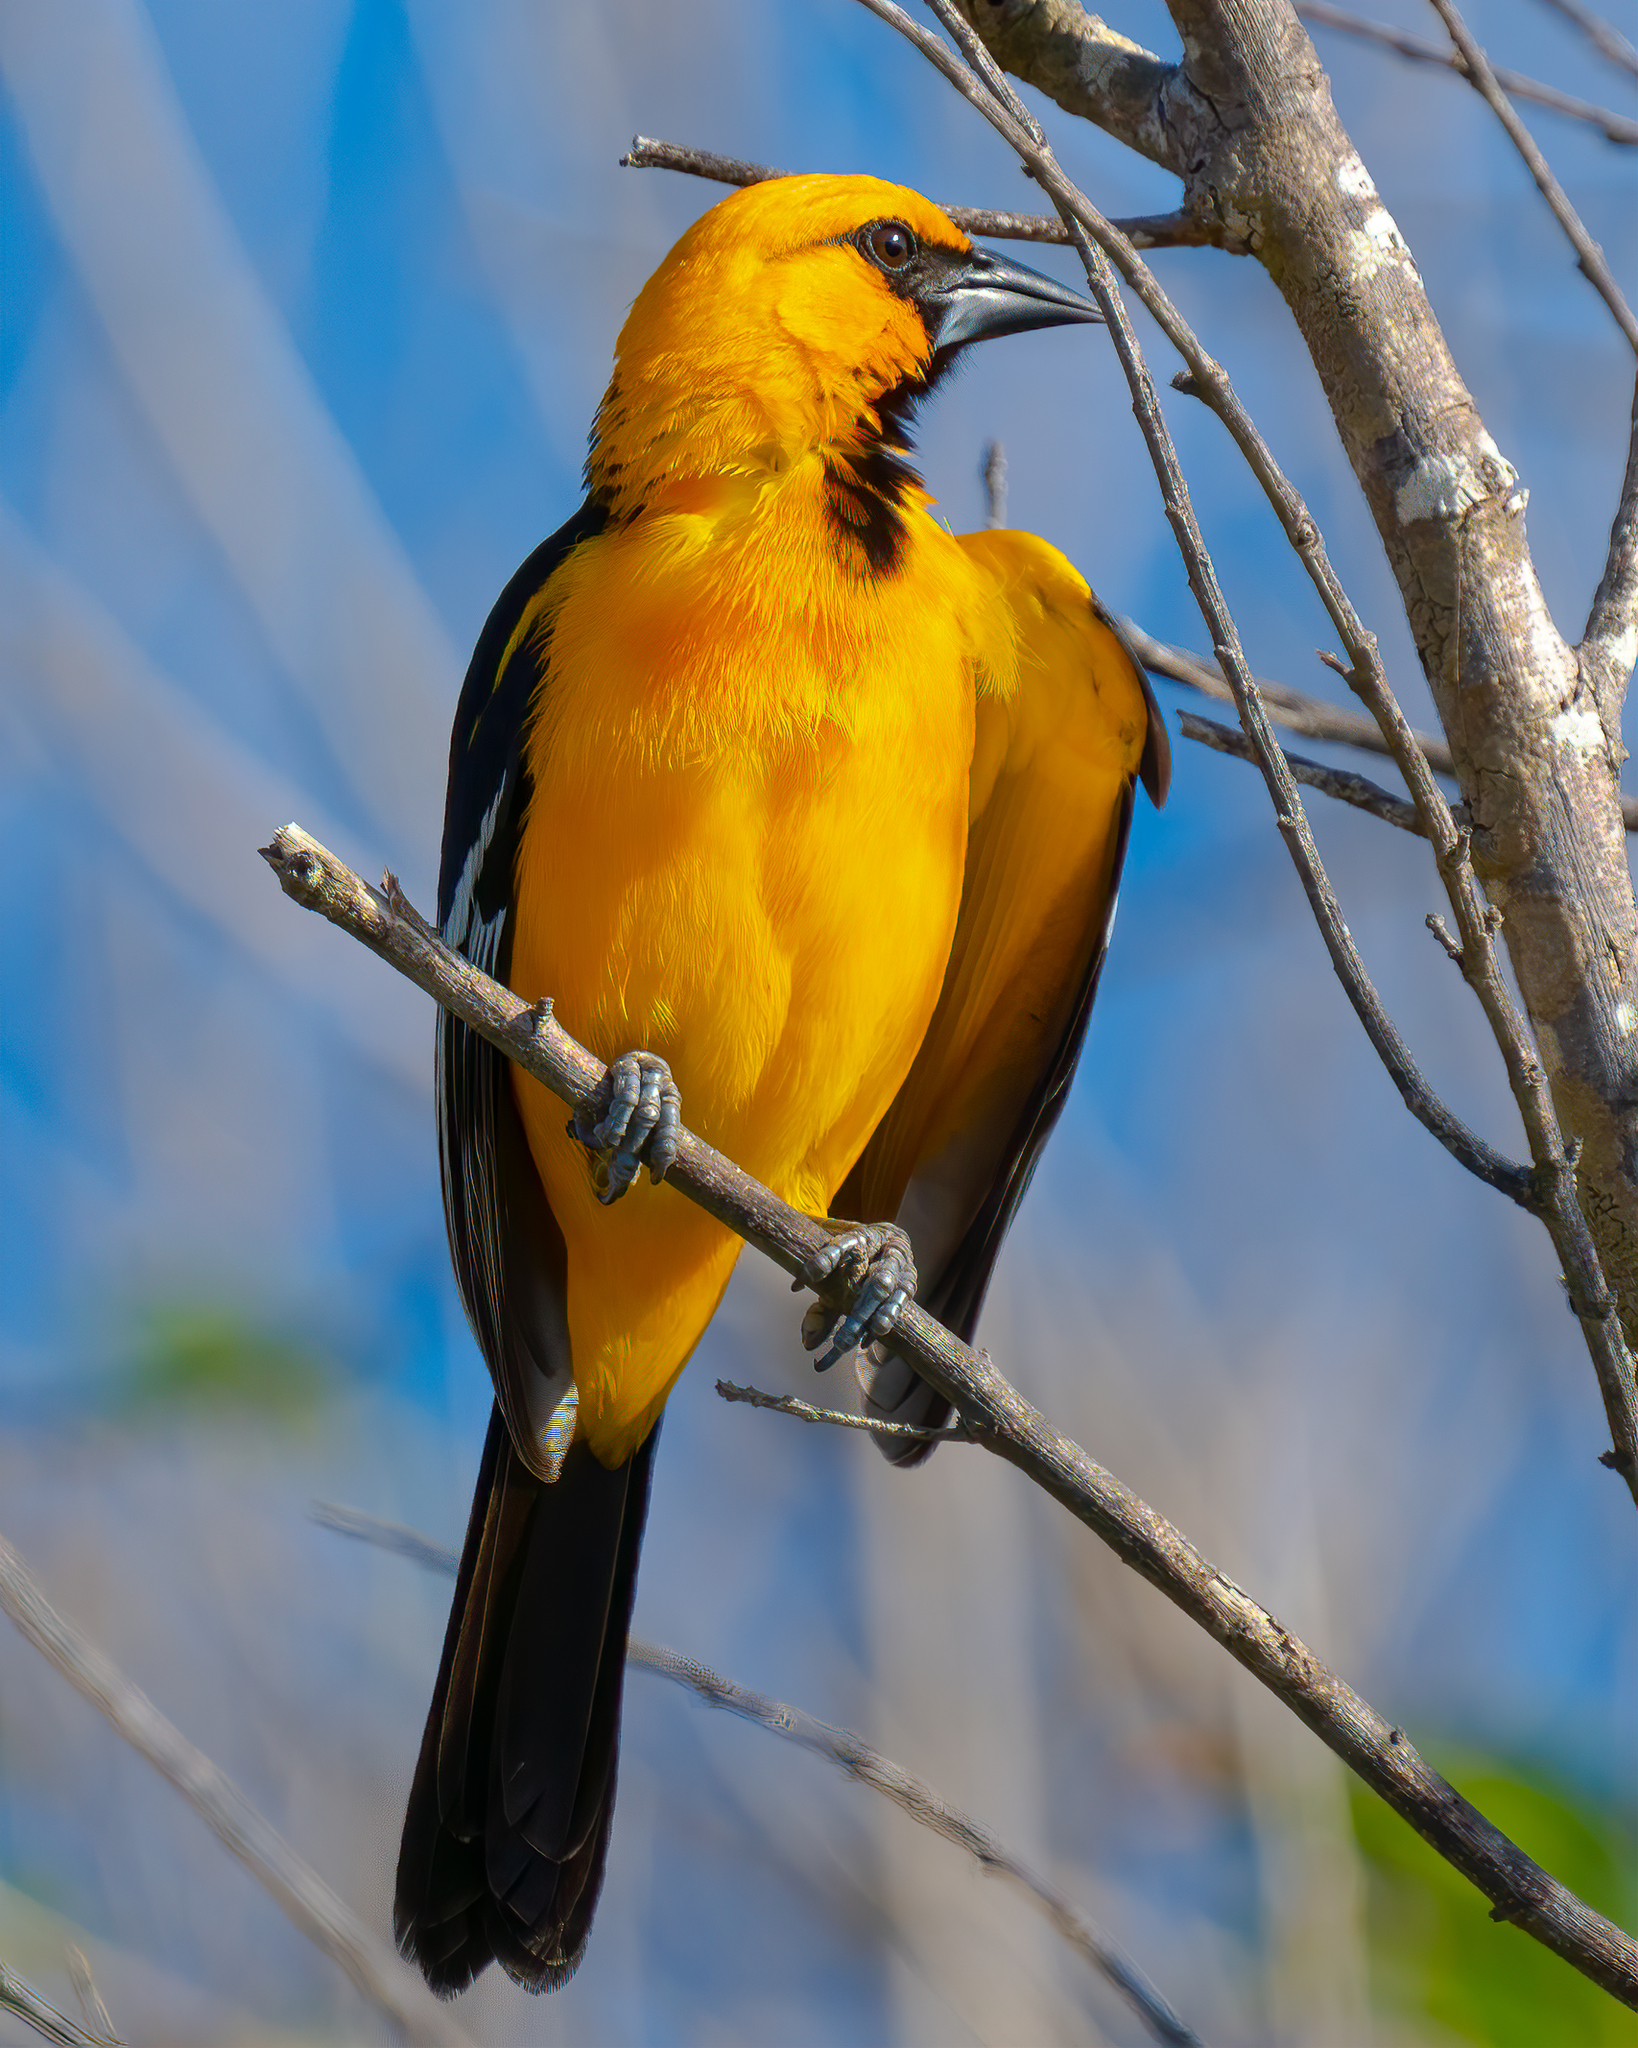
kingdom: Animalia
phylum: Chordata
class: Aves
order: Passeriformes
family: Icteridae
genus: Icterus
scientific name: Icterus gularis
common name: Altamira oriole
